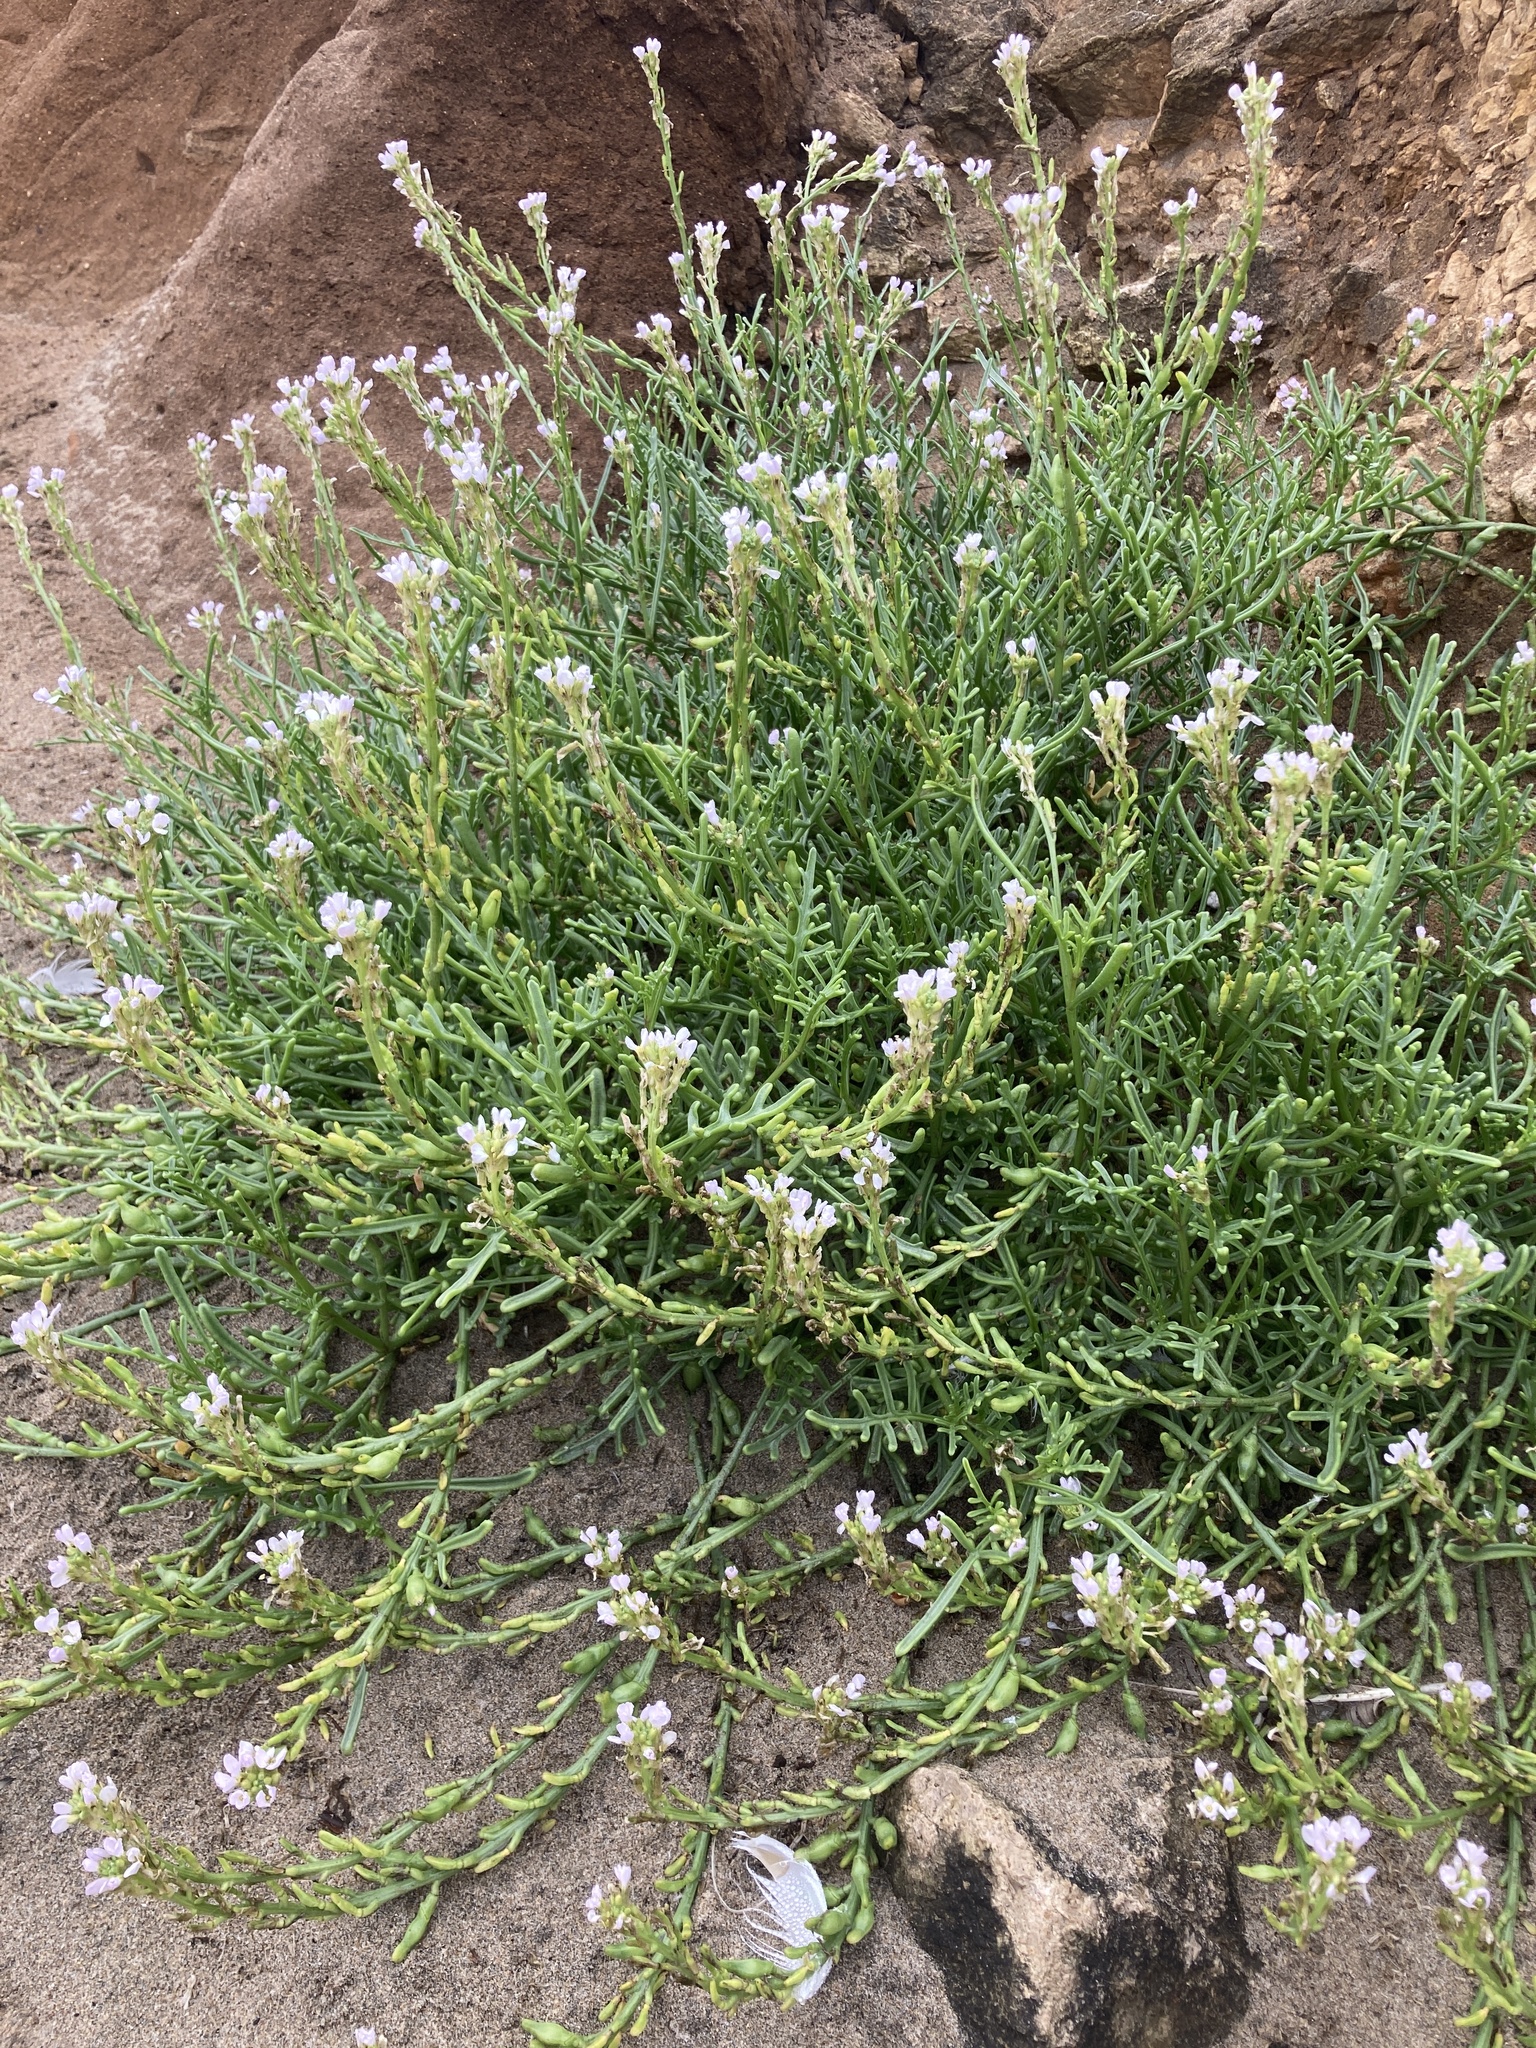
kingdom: Plantae
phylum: Tracheophyta
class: Magnoliopsida
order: Brassicales
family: Brassicaceae
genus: Cakile
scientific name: Cakile maritima
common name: Sea rocket
